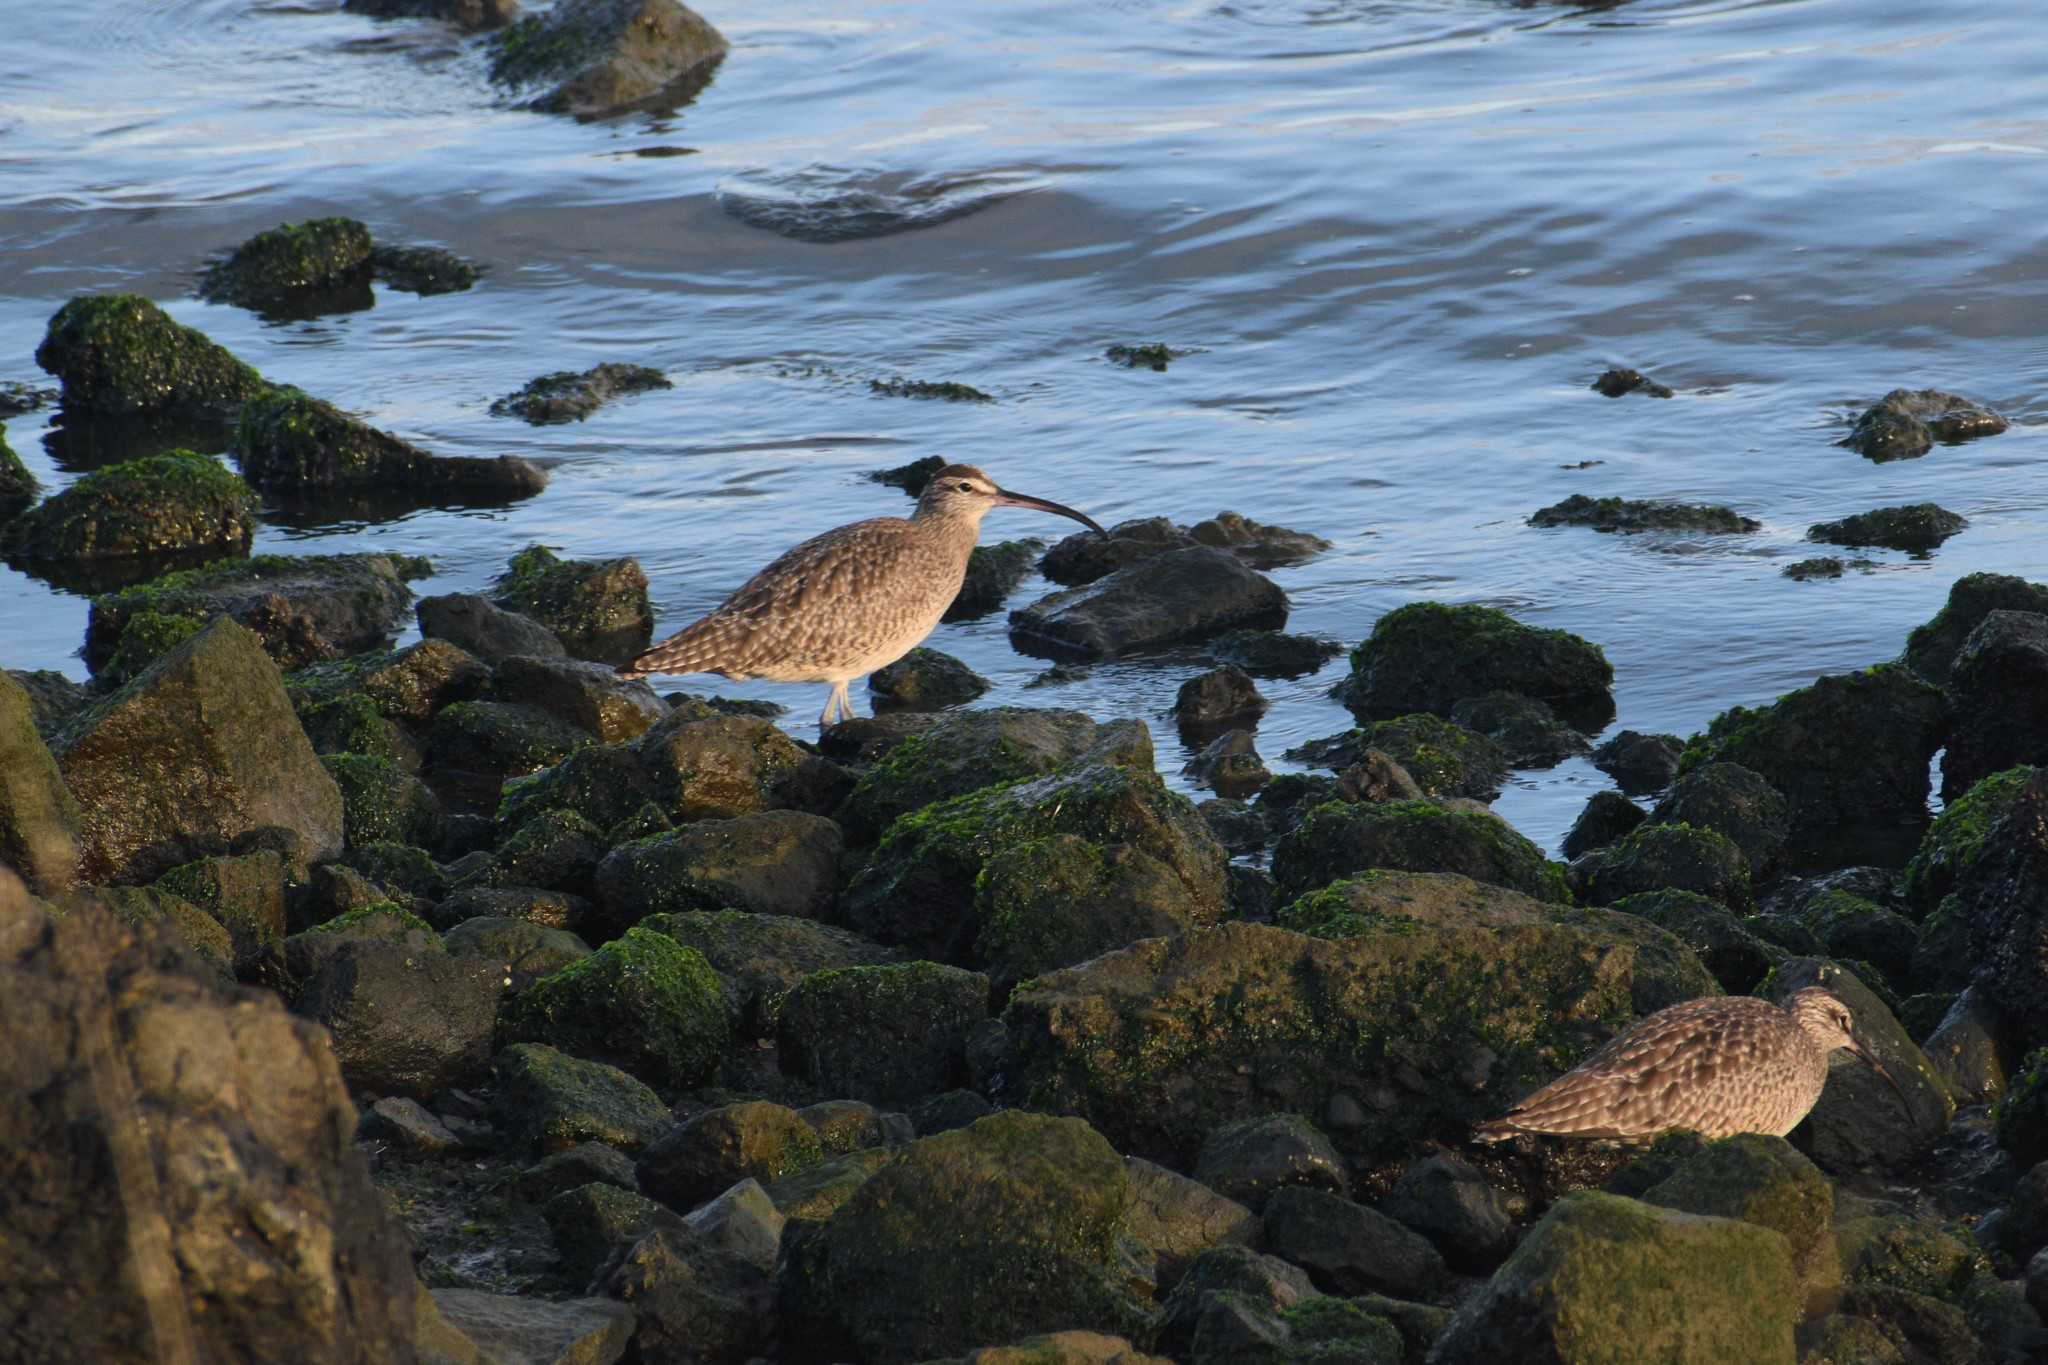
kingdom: Animalia
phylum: Chordata
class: Aves
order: Charadriiformes
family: Scolopacidae
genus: Numenius
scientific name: Numenius phaeopus
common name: Whimbrel
